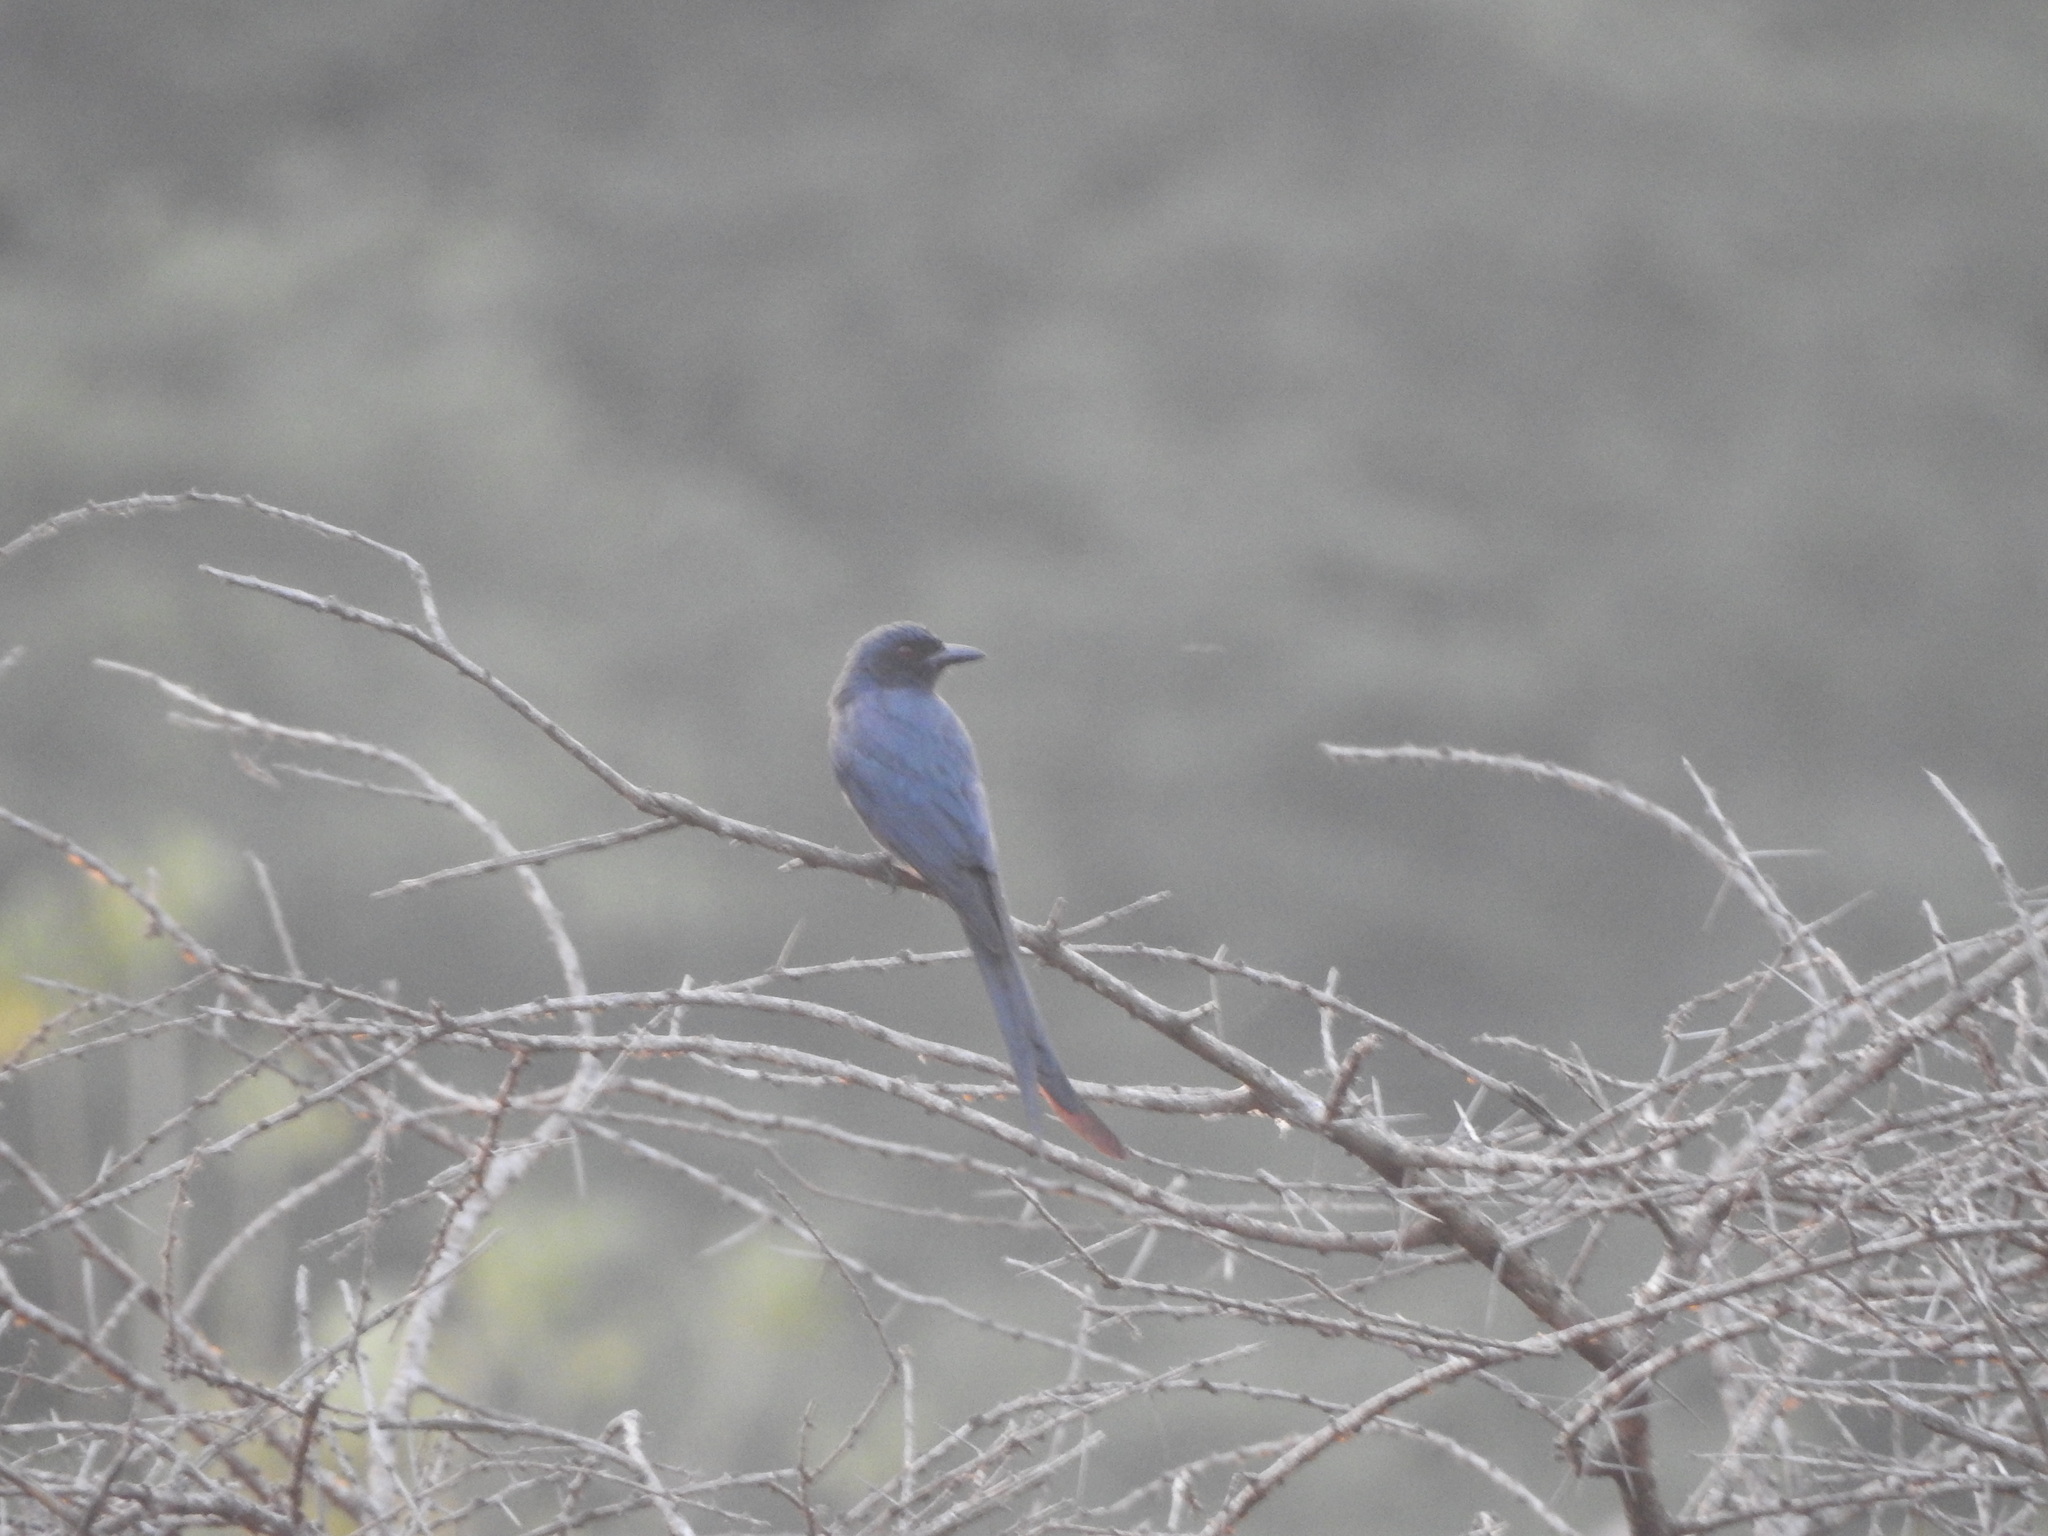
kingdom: Animalia
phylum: Chordata
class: Aves
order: Passeriformes
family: Dicruridae
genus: Dicrurus
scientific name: Dicrurus leucophaeus
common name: Ashy drongo
